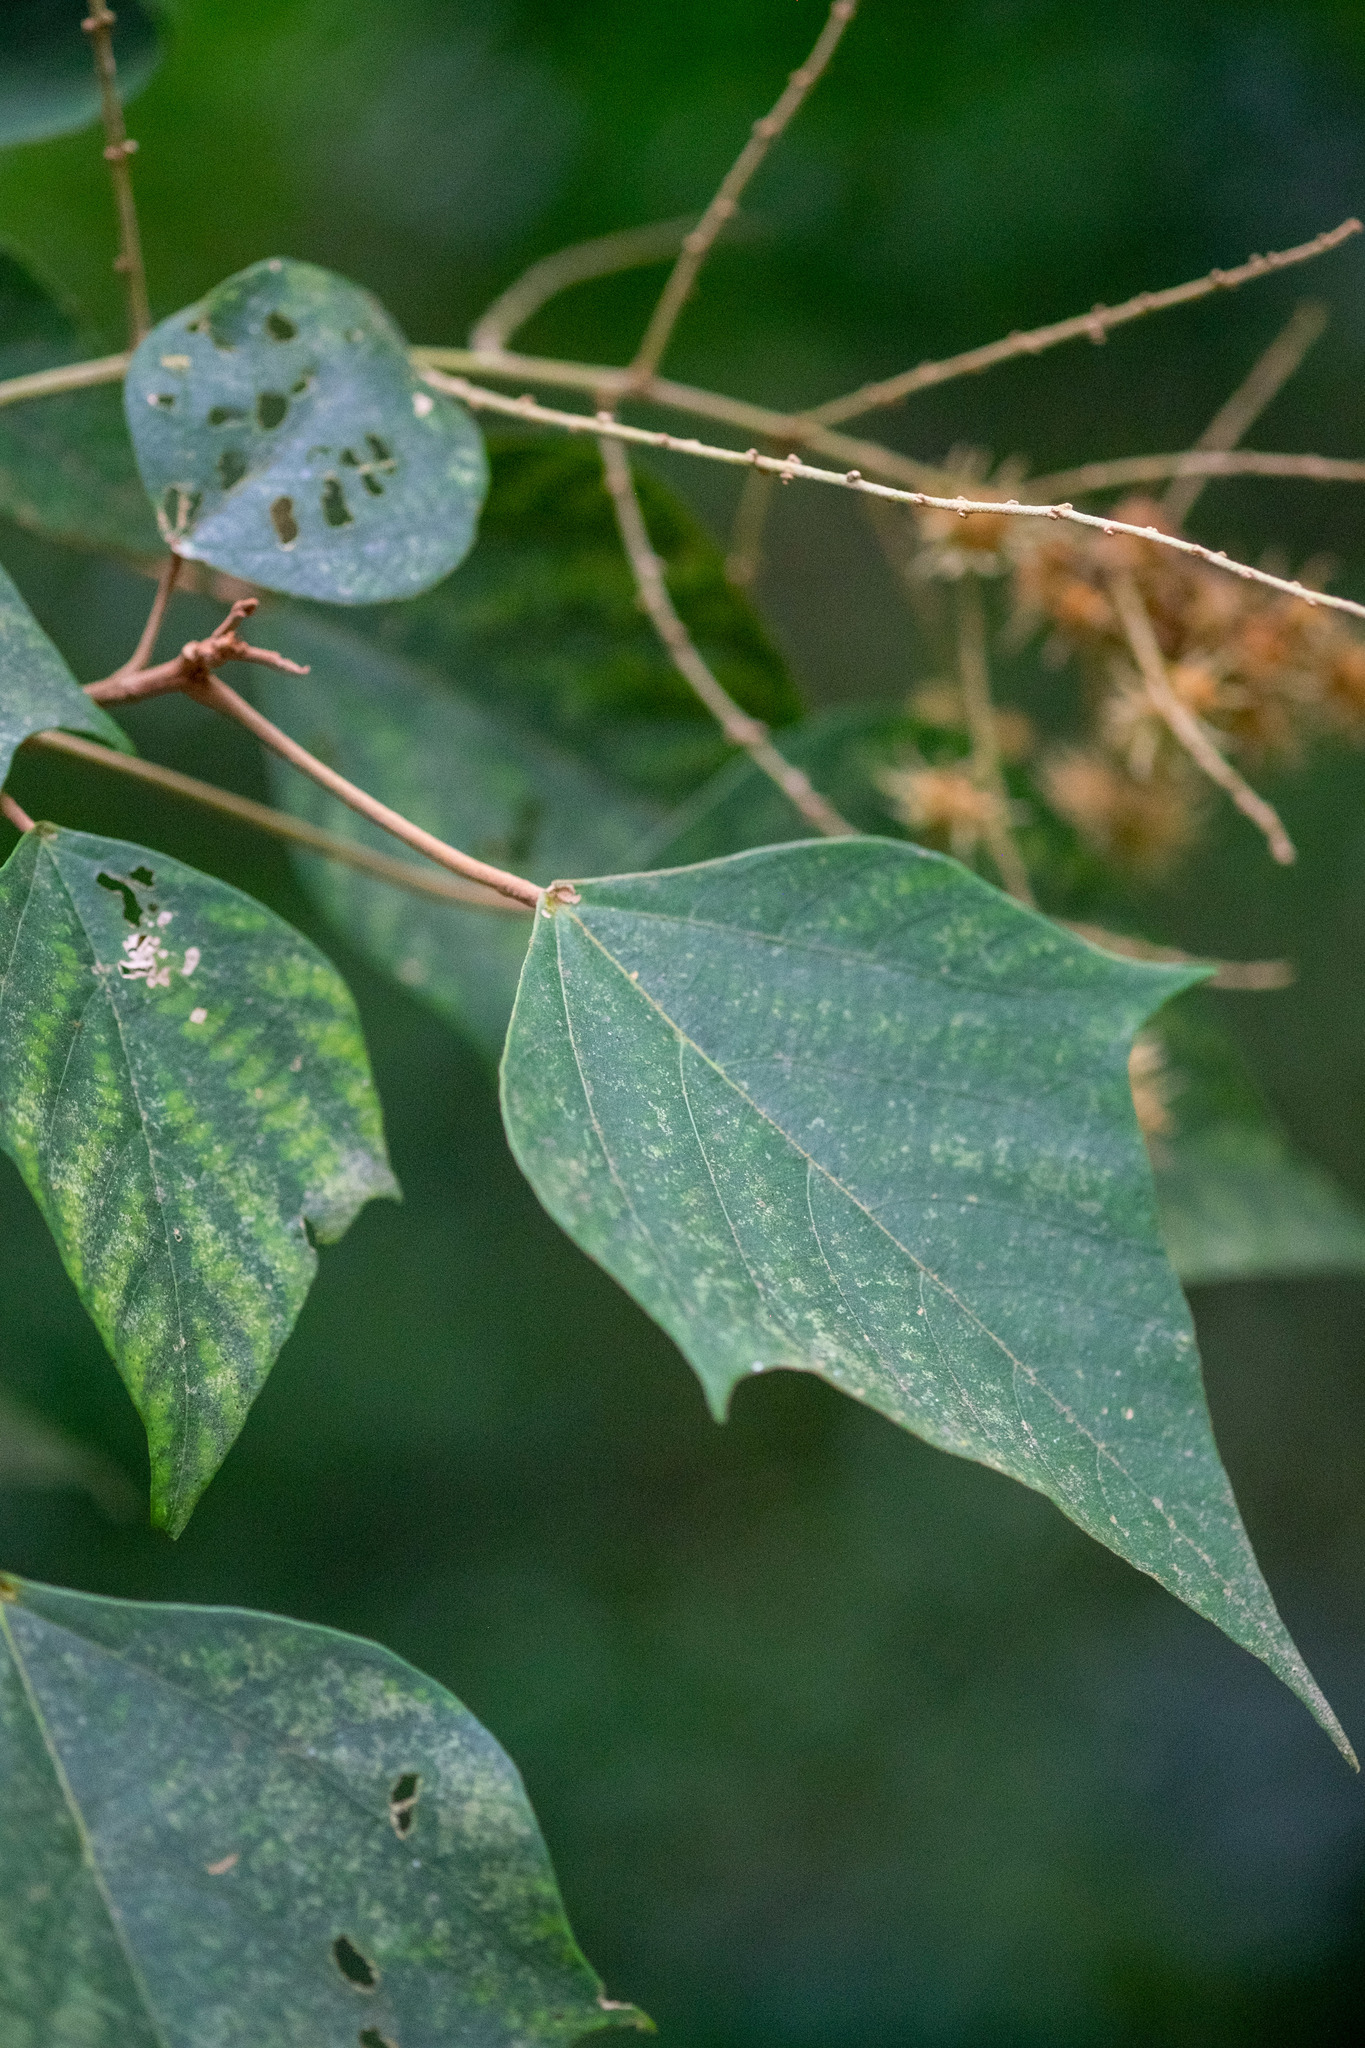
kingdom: Plantae
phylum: Tracheophyta
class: Magnoliopsida
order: Malpighiales
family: Euphorbiaceae
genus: Mallotus
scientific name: Mallotus paniculatus
